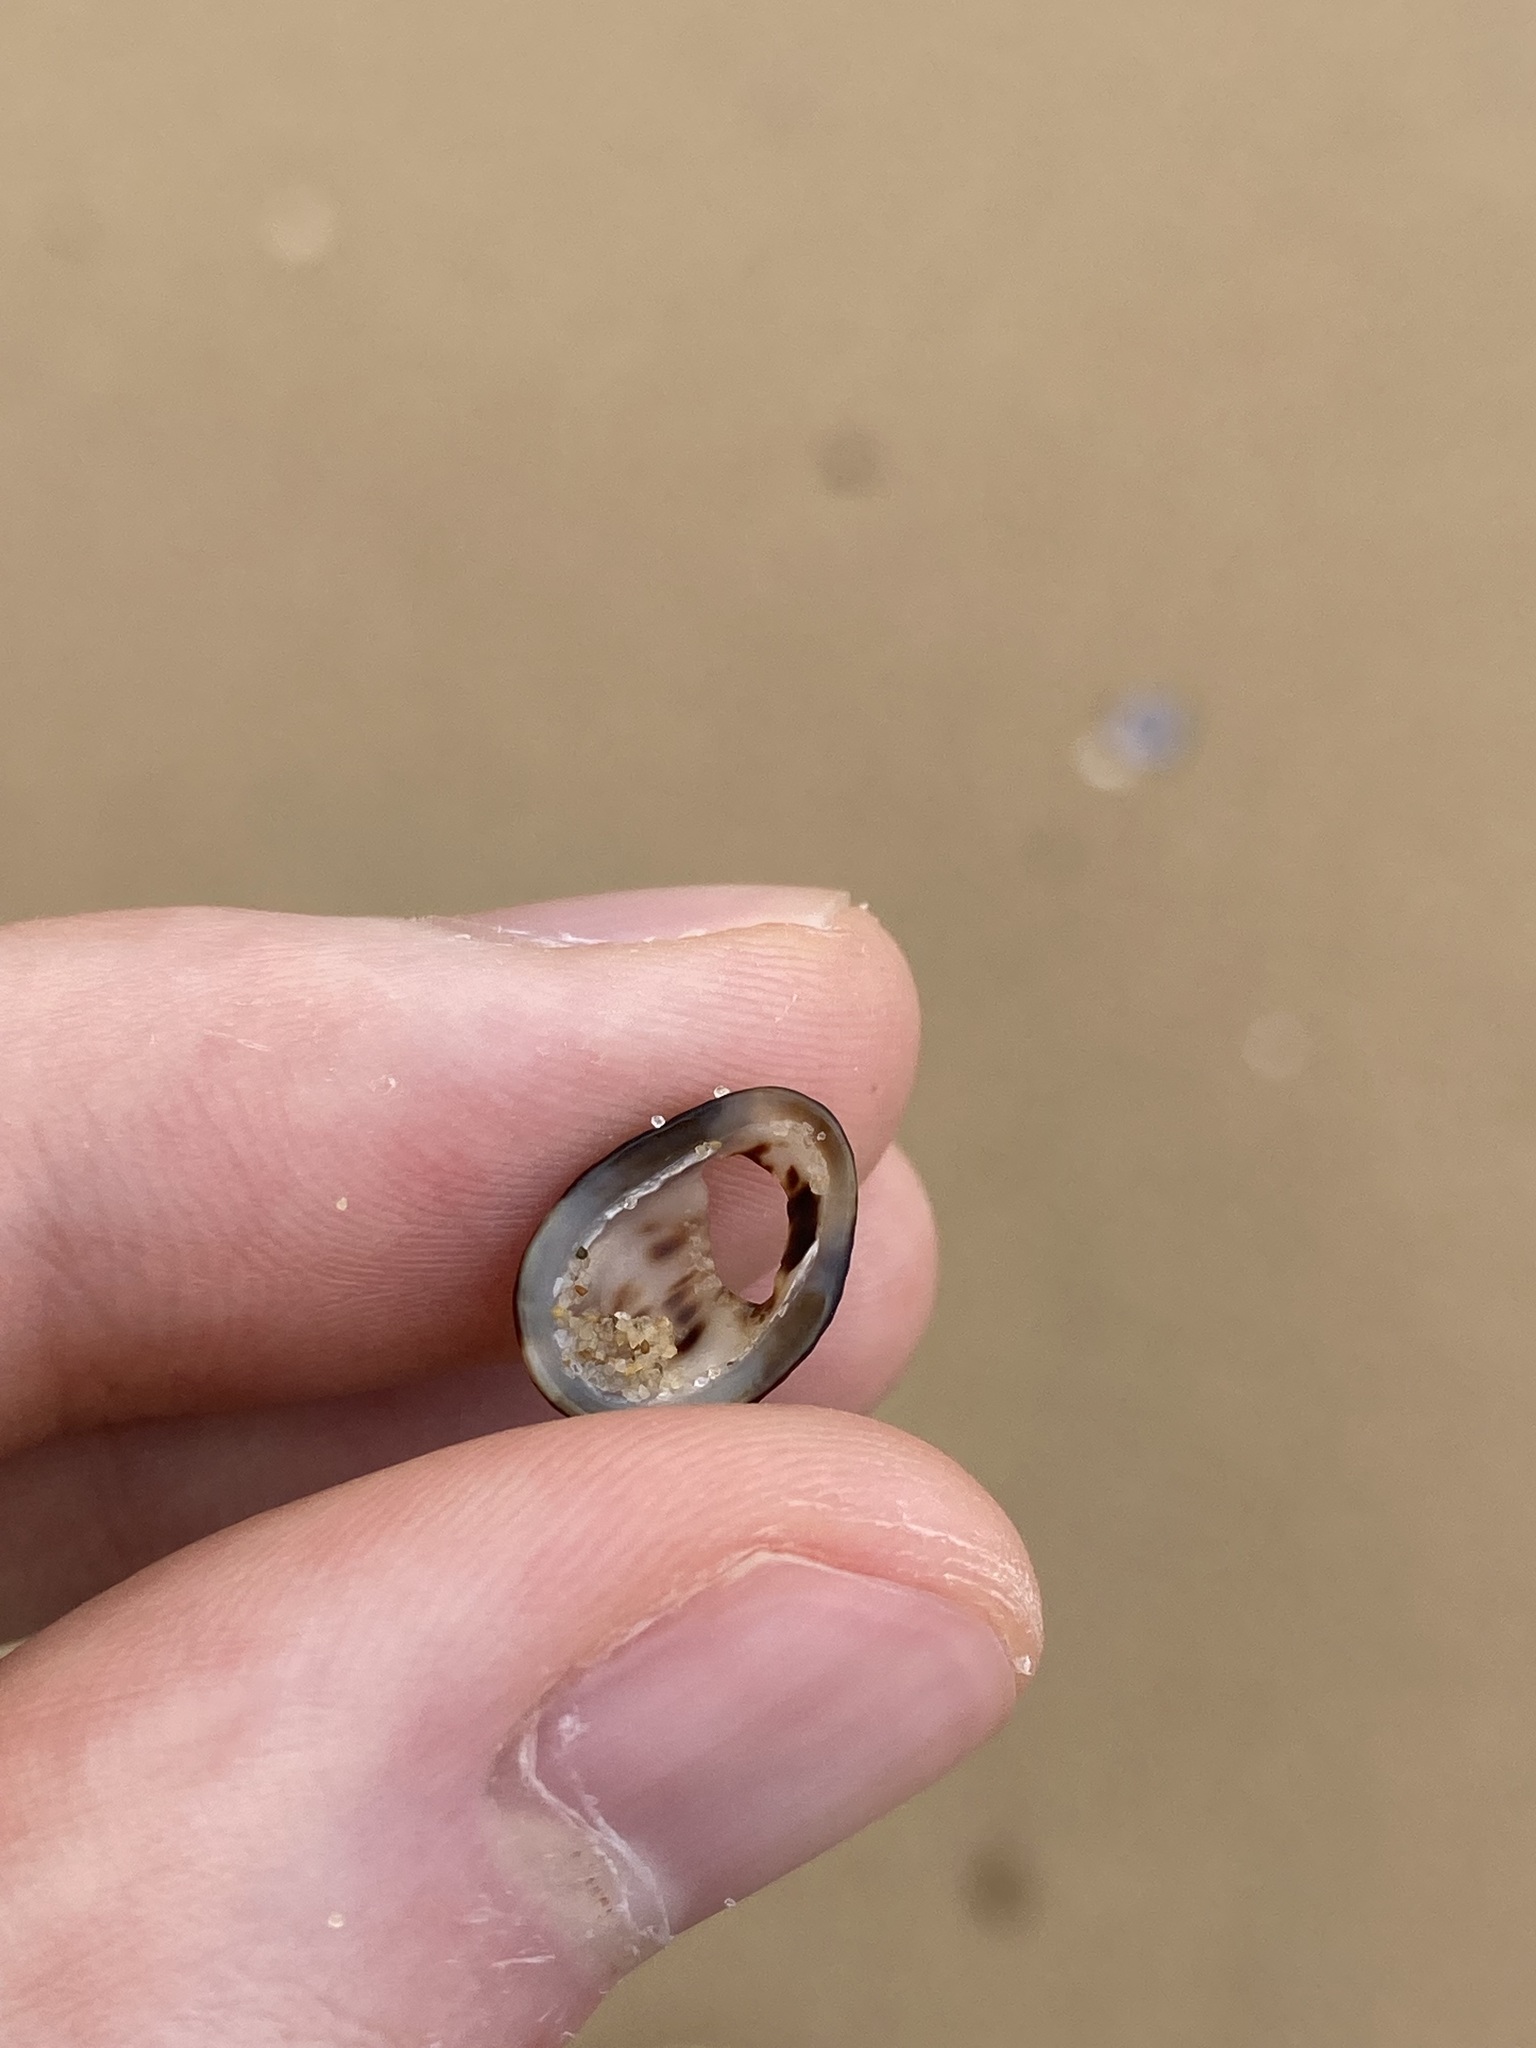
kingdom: Animalia
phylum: Mollusca
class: Gastropoda
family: Lottiidae
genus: Patelloida
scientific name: Patelloida latistrigata
